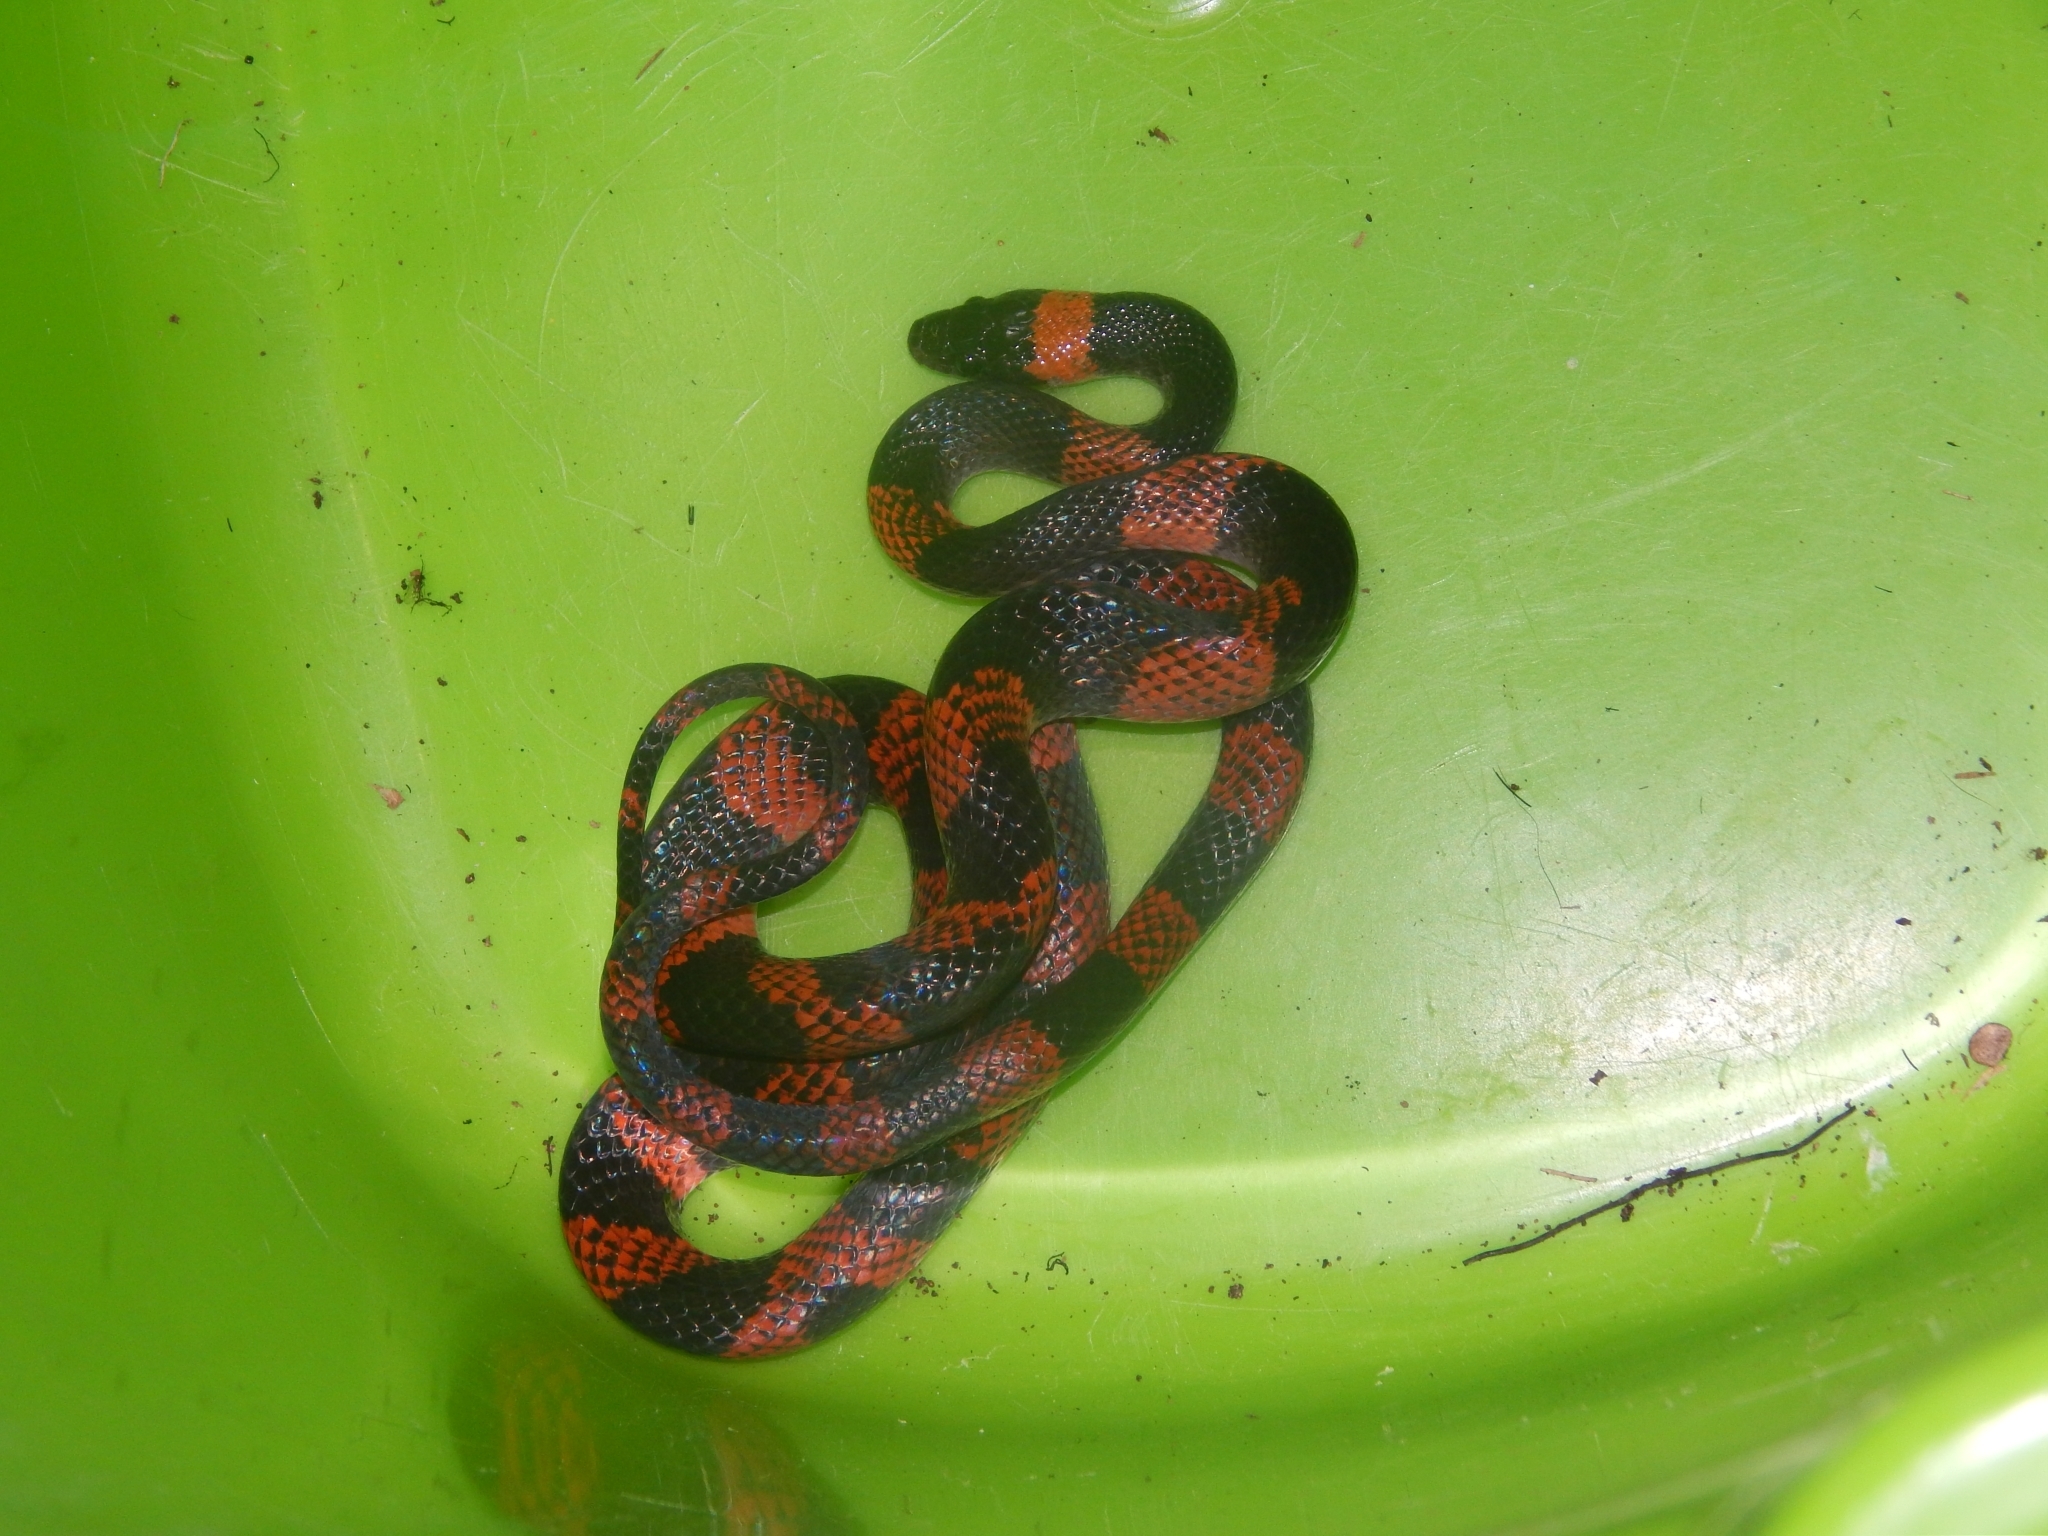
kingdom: Animalia
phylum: Chordata
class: Squamata
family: Colubridae
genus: Oxyrhopus
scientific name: Oxyrhopus petolarius
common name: Forest flame snake
